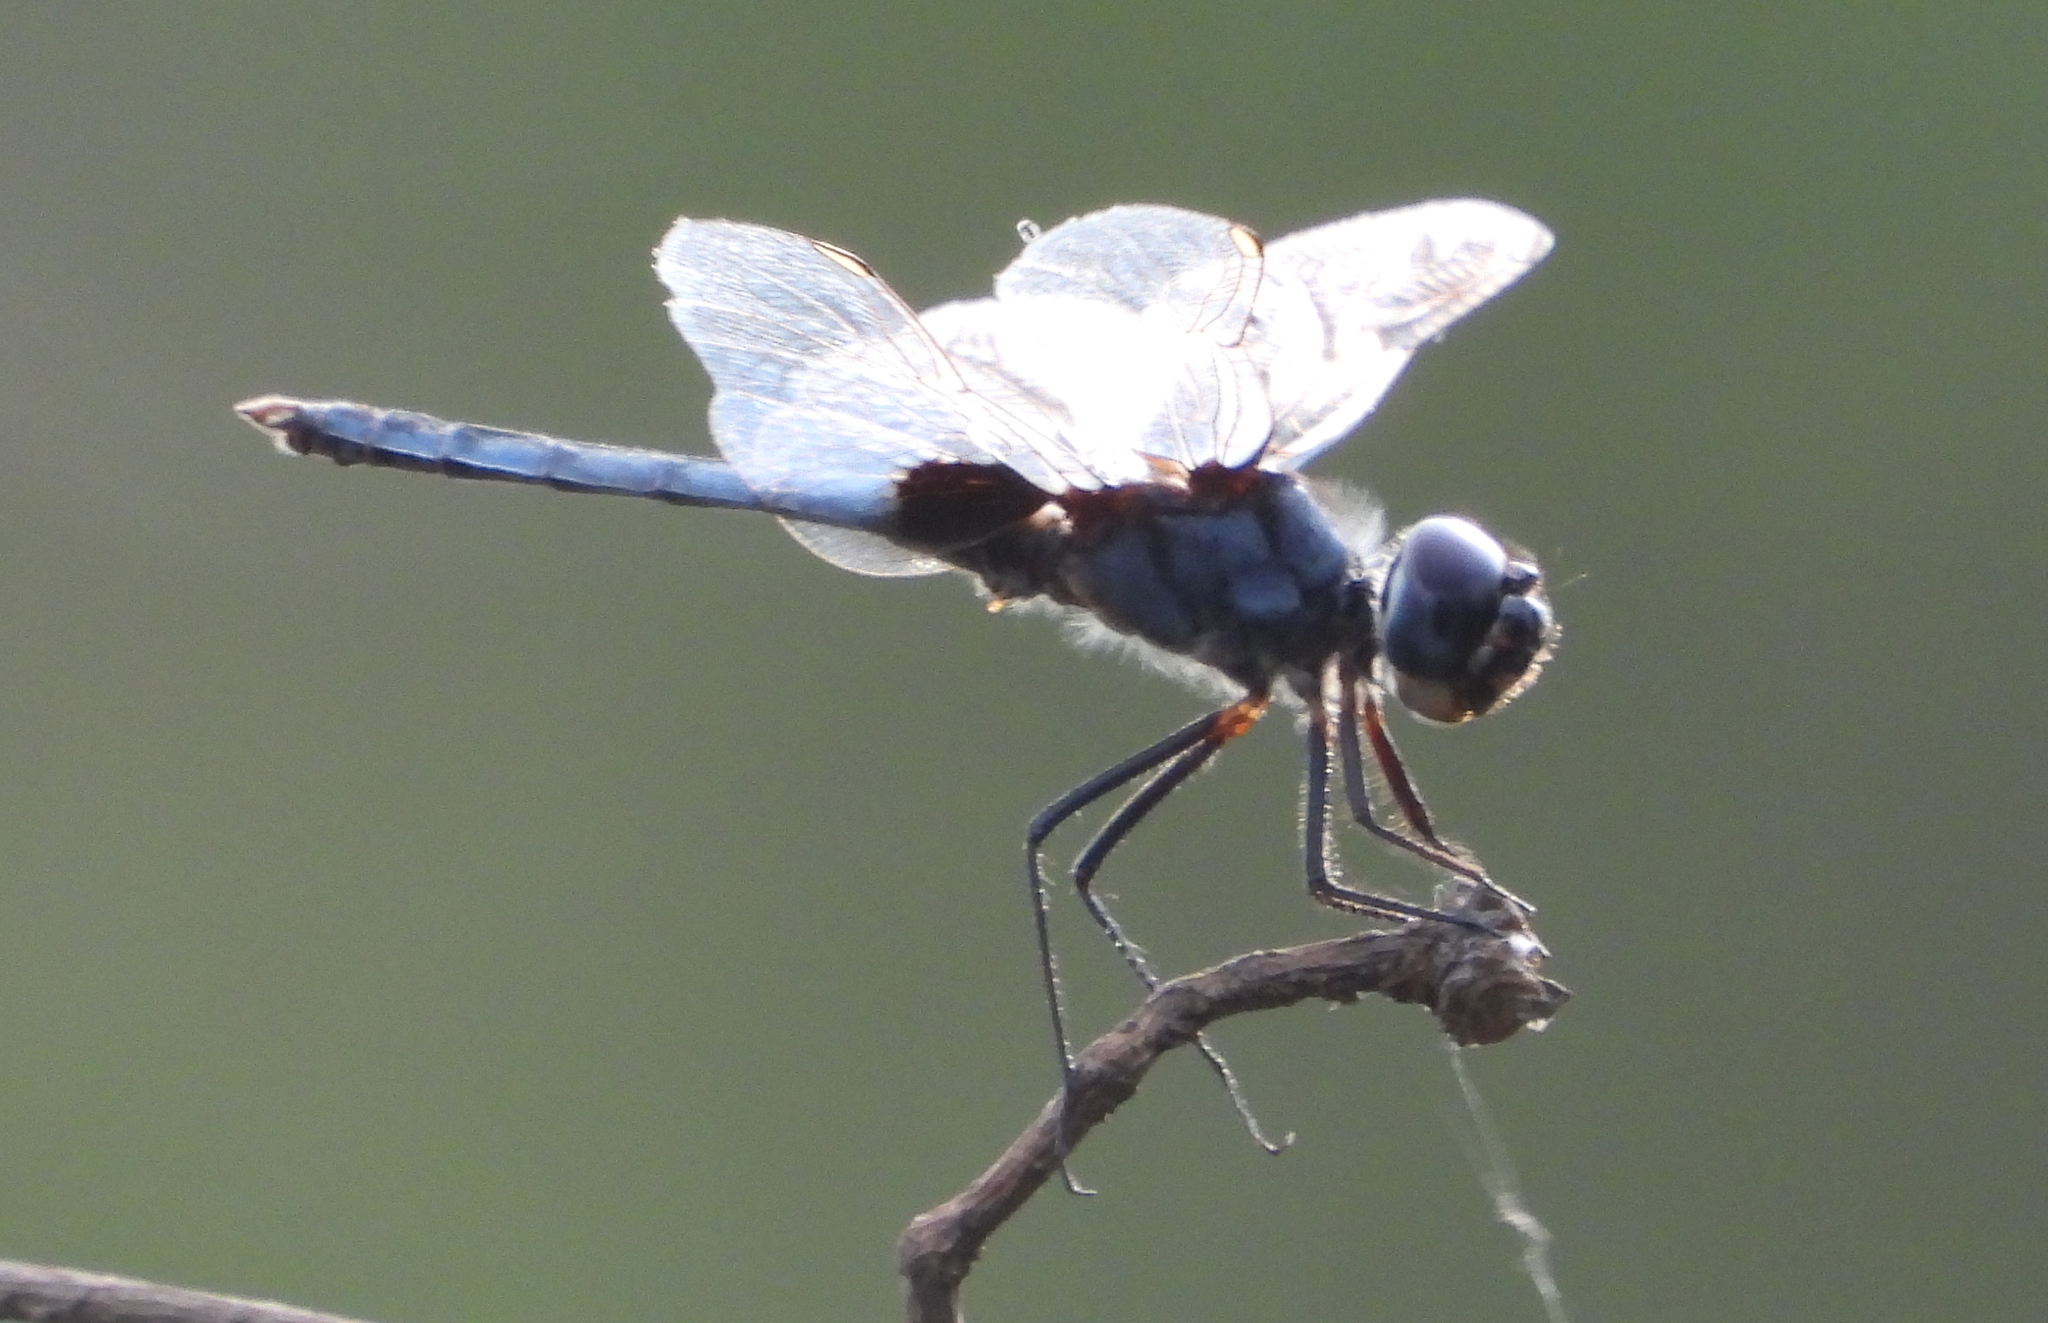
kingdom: Animalia
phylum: Arthropoda
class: Insecta
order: Odonata
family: Libellulidae
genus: Urothemis
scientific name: Urothemis edwardsii
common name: Blue basker
